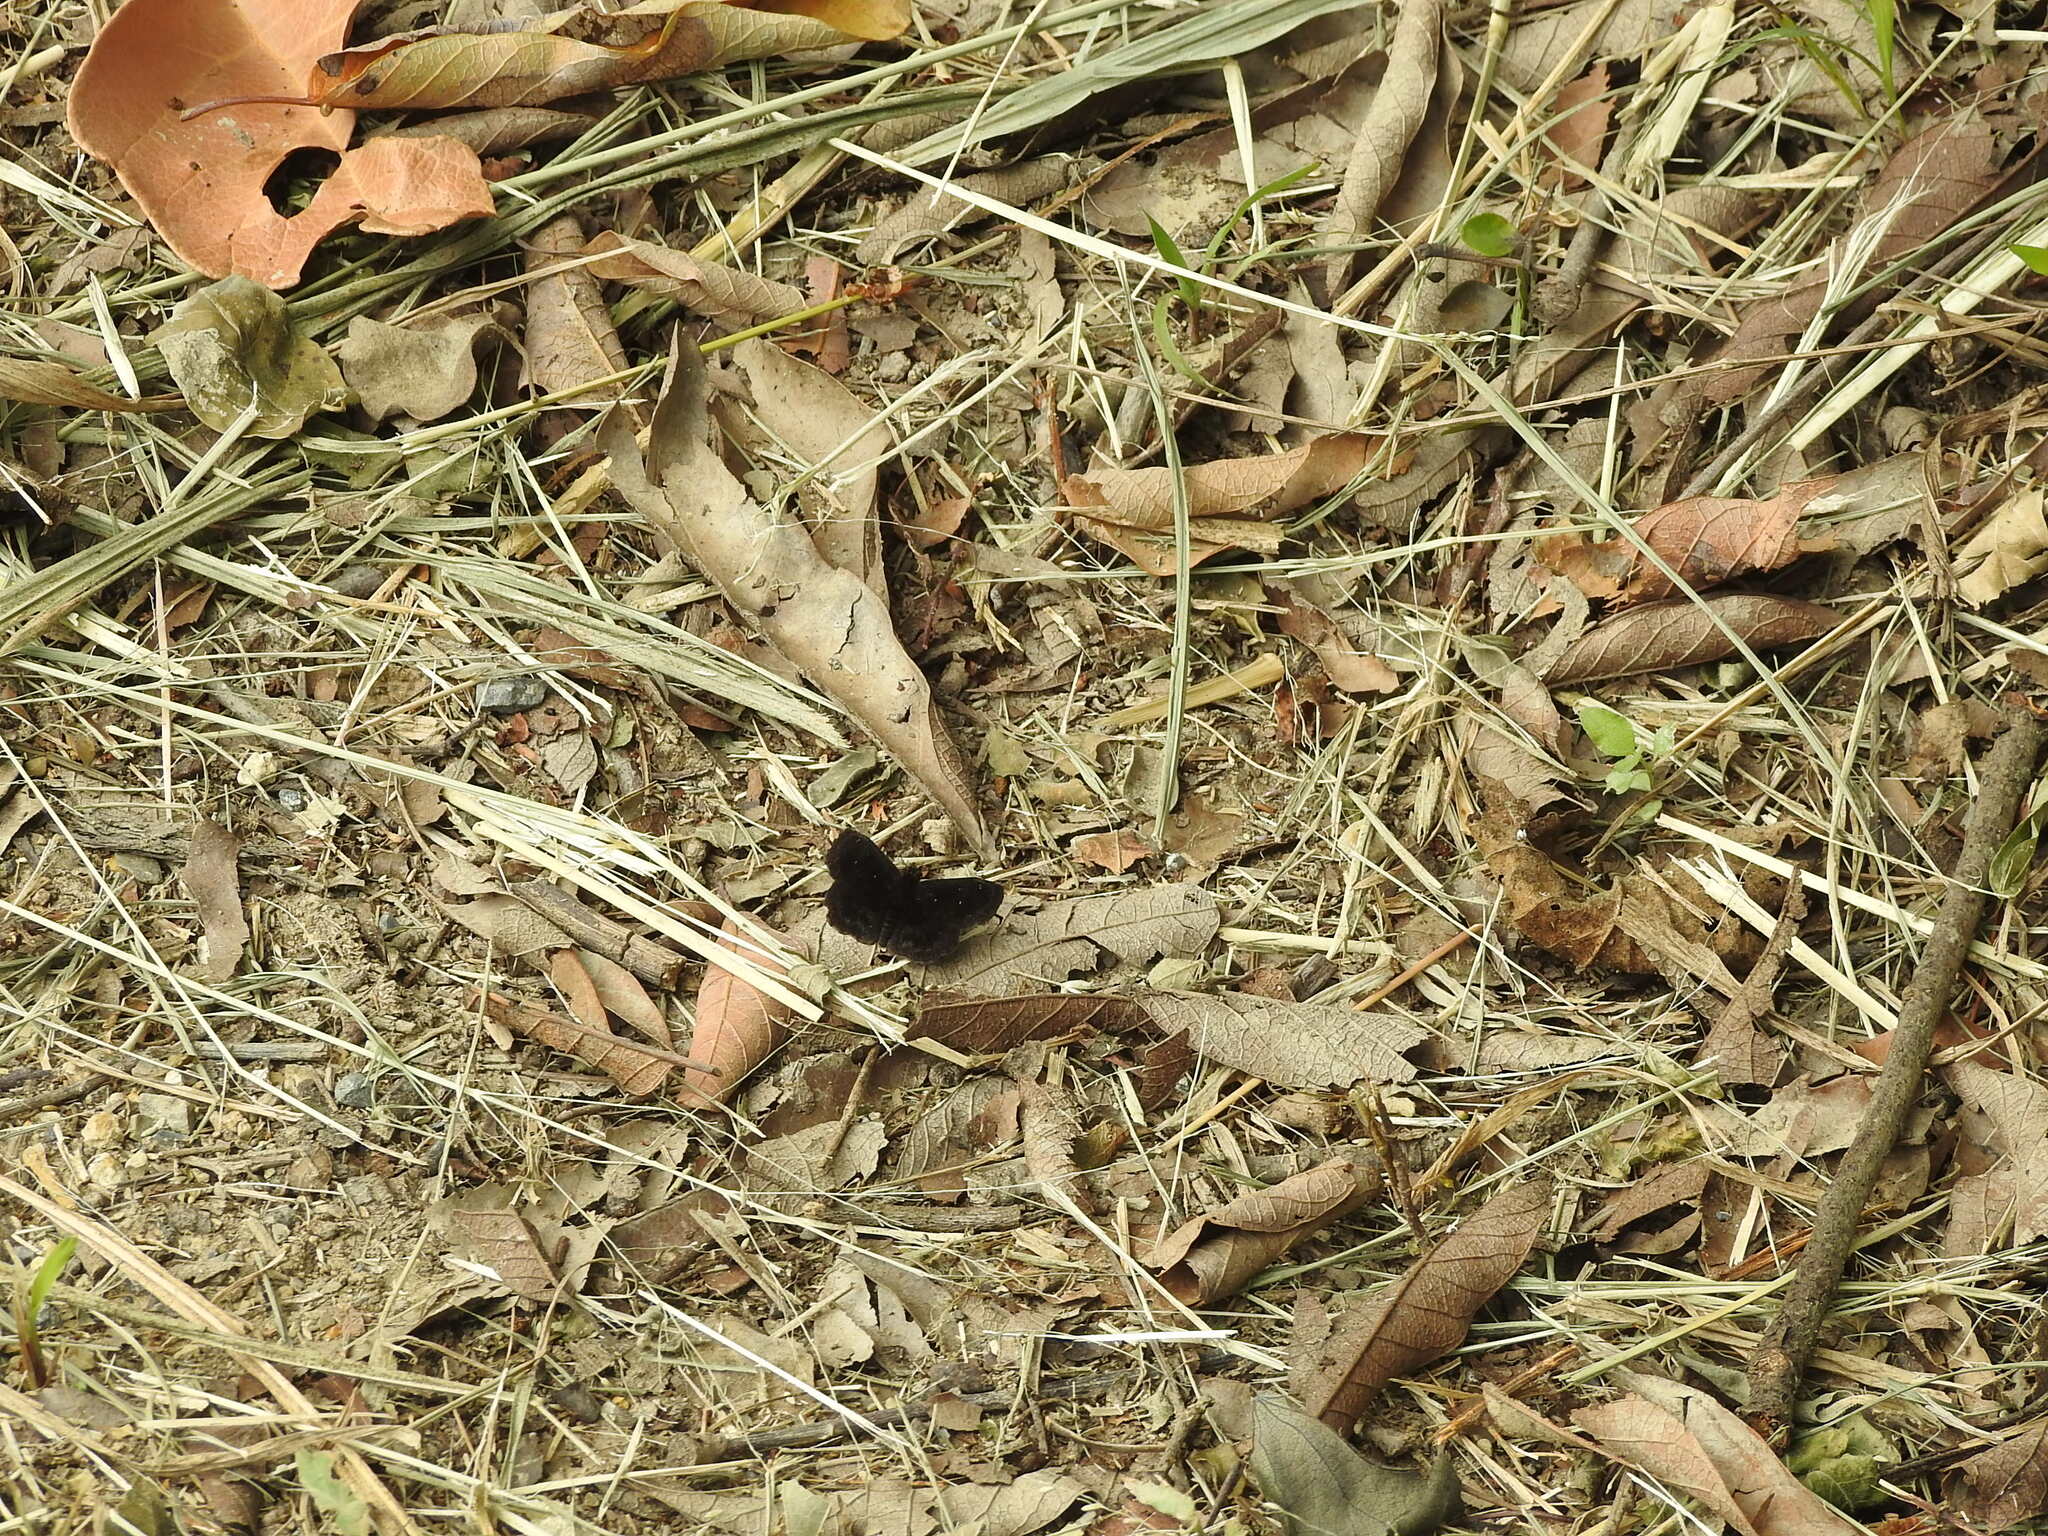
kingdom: Animalia
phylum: Arthropoda
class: Insecta
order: Lepidoptera
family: Hesperiidae
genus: Staphylus
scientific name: Staphylus mazans
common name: Mazans scallopwing
